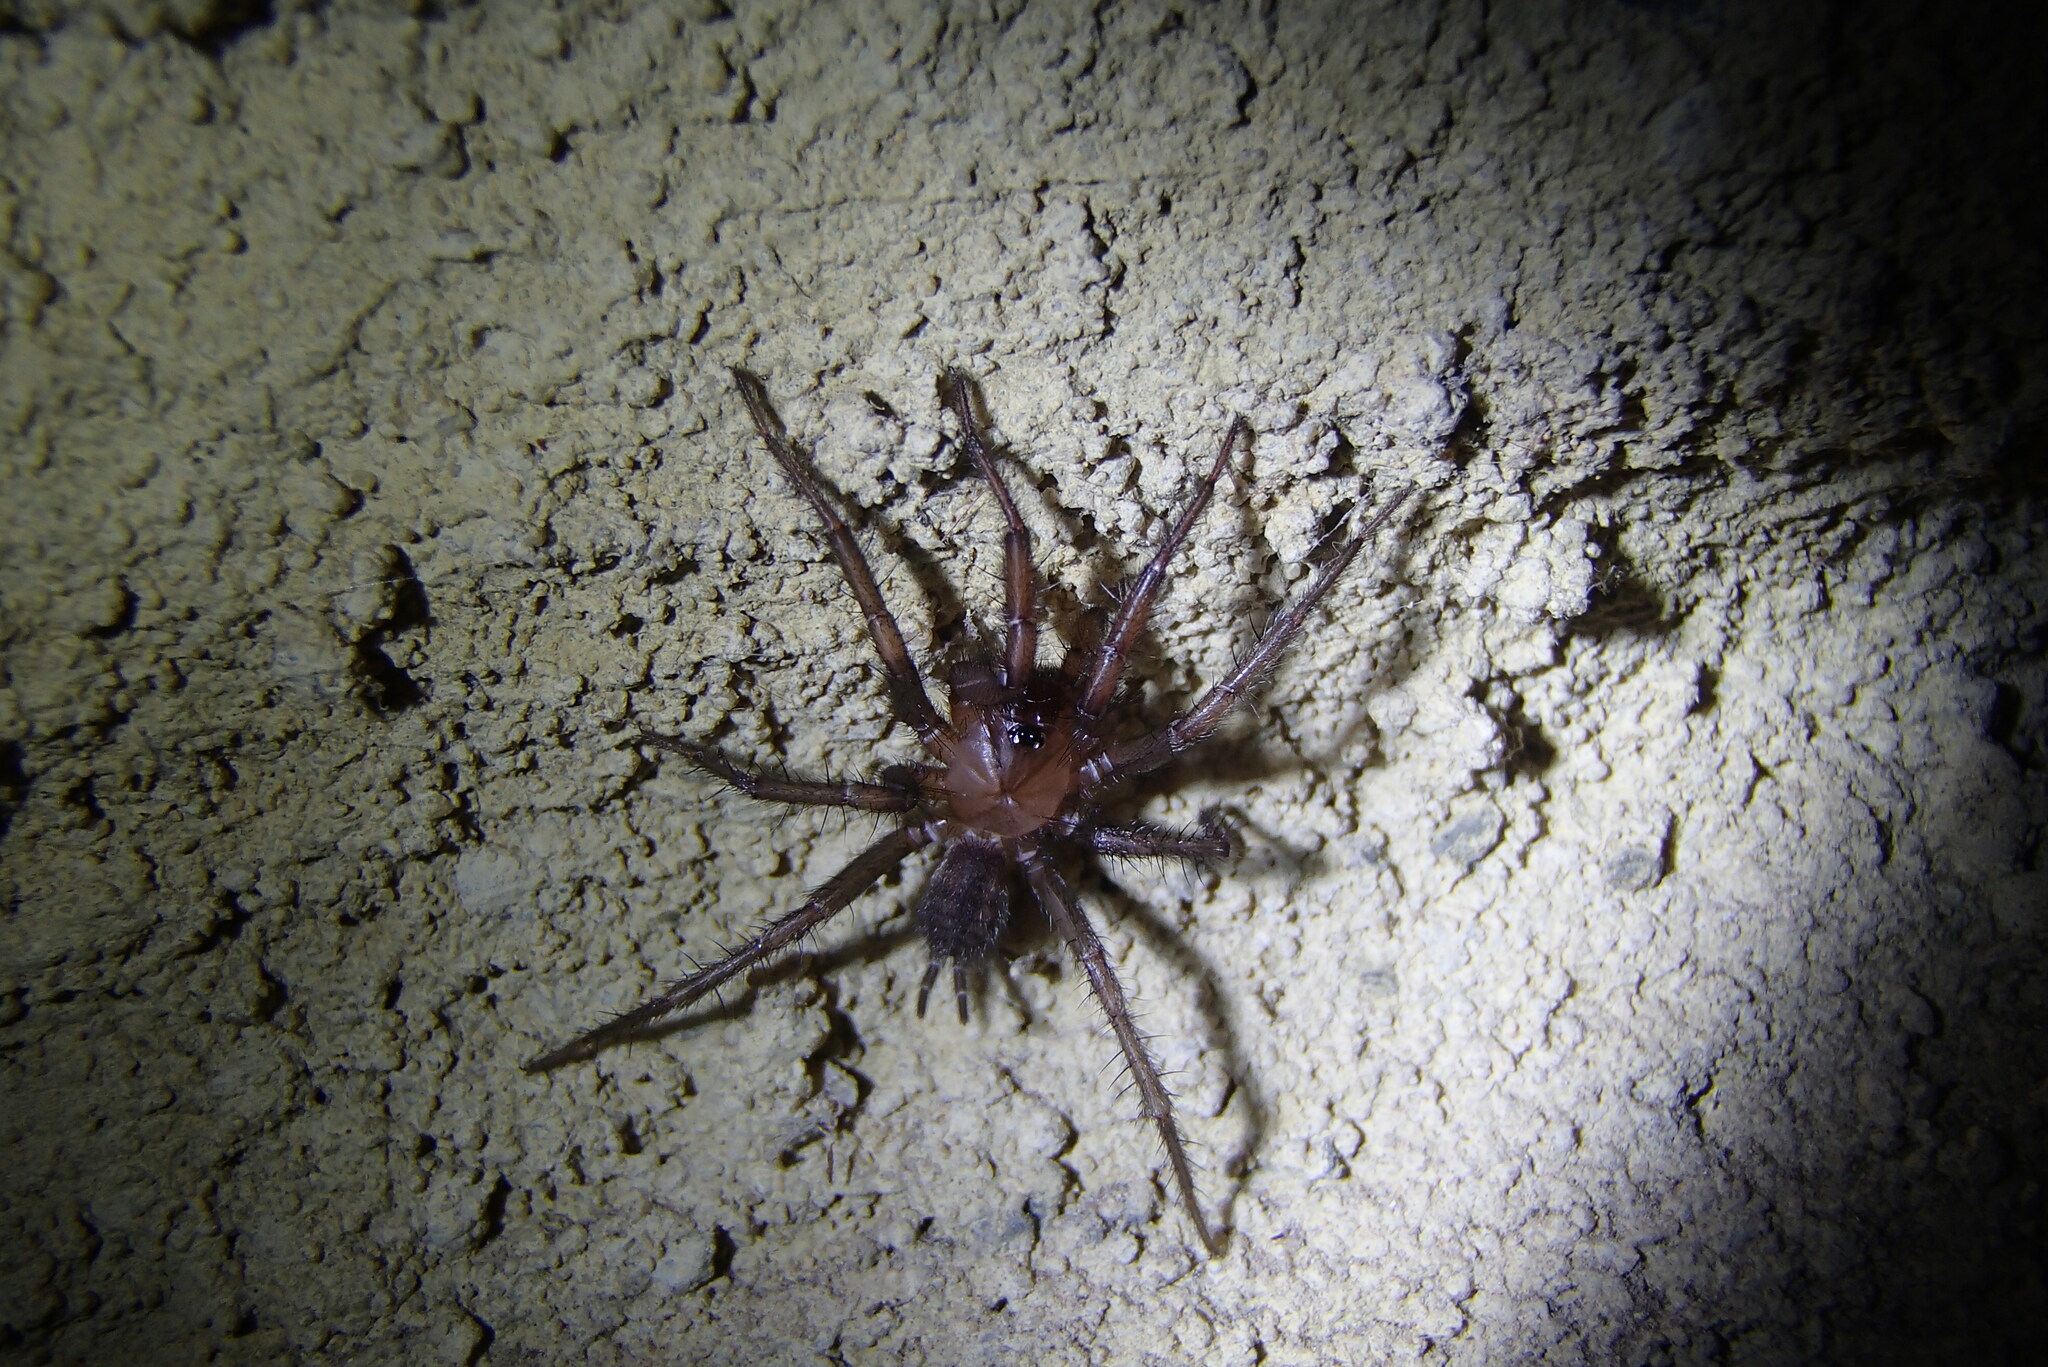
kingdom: Animalia
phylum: Arthropoda
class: Arachnida
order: Araneae
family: Hexathelidae
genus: Paraembolides
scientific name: Paraembolides variabilis
